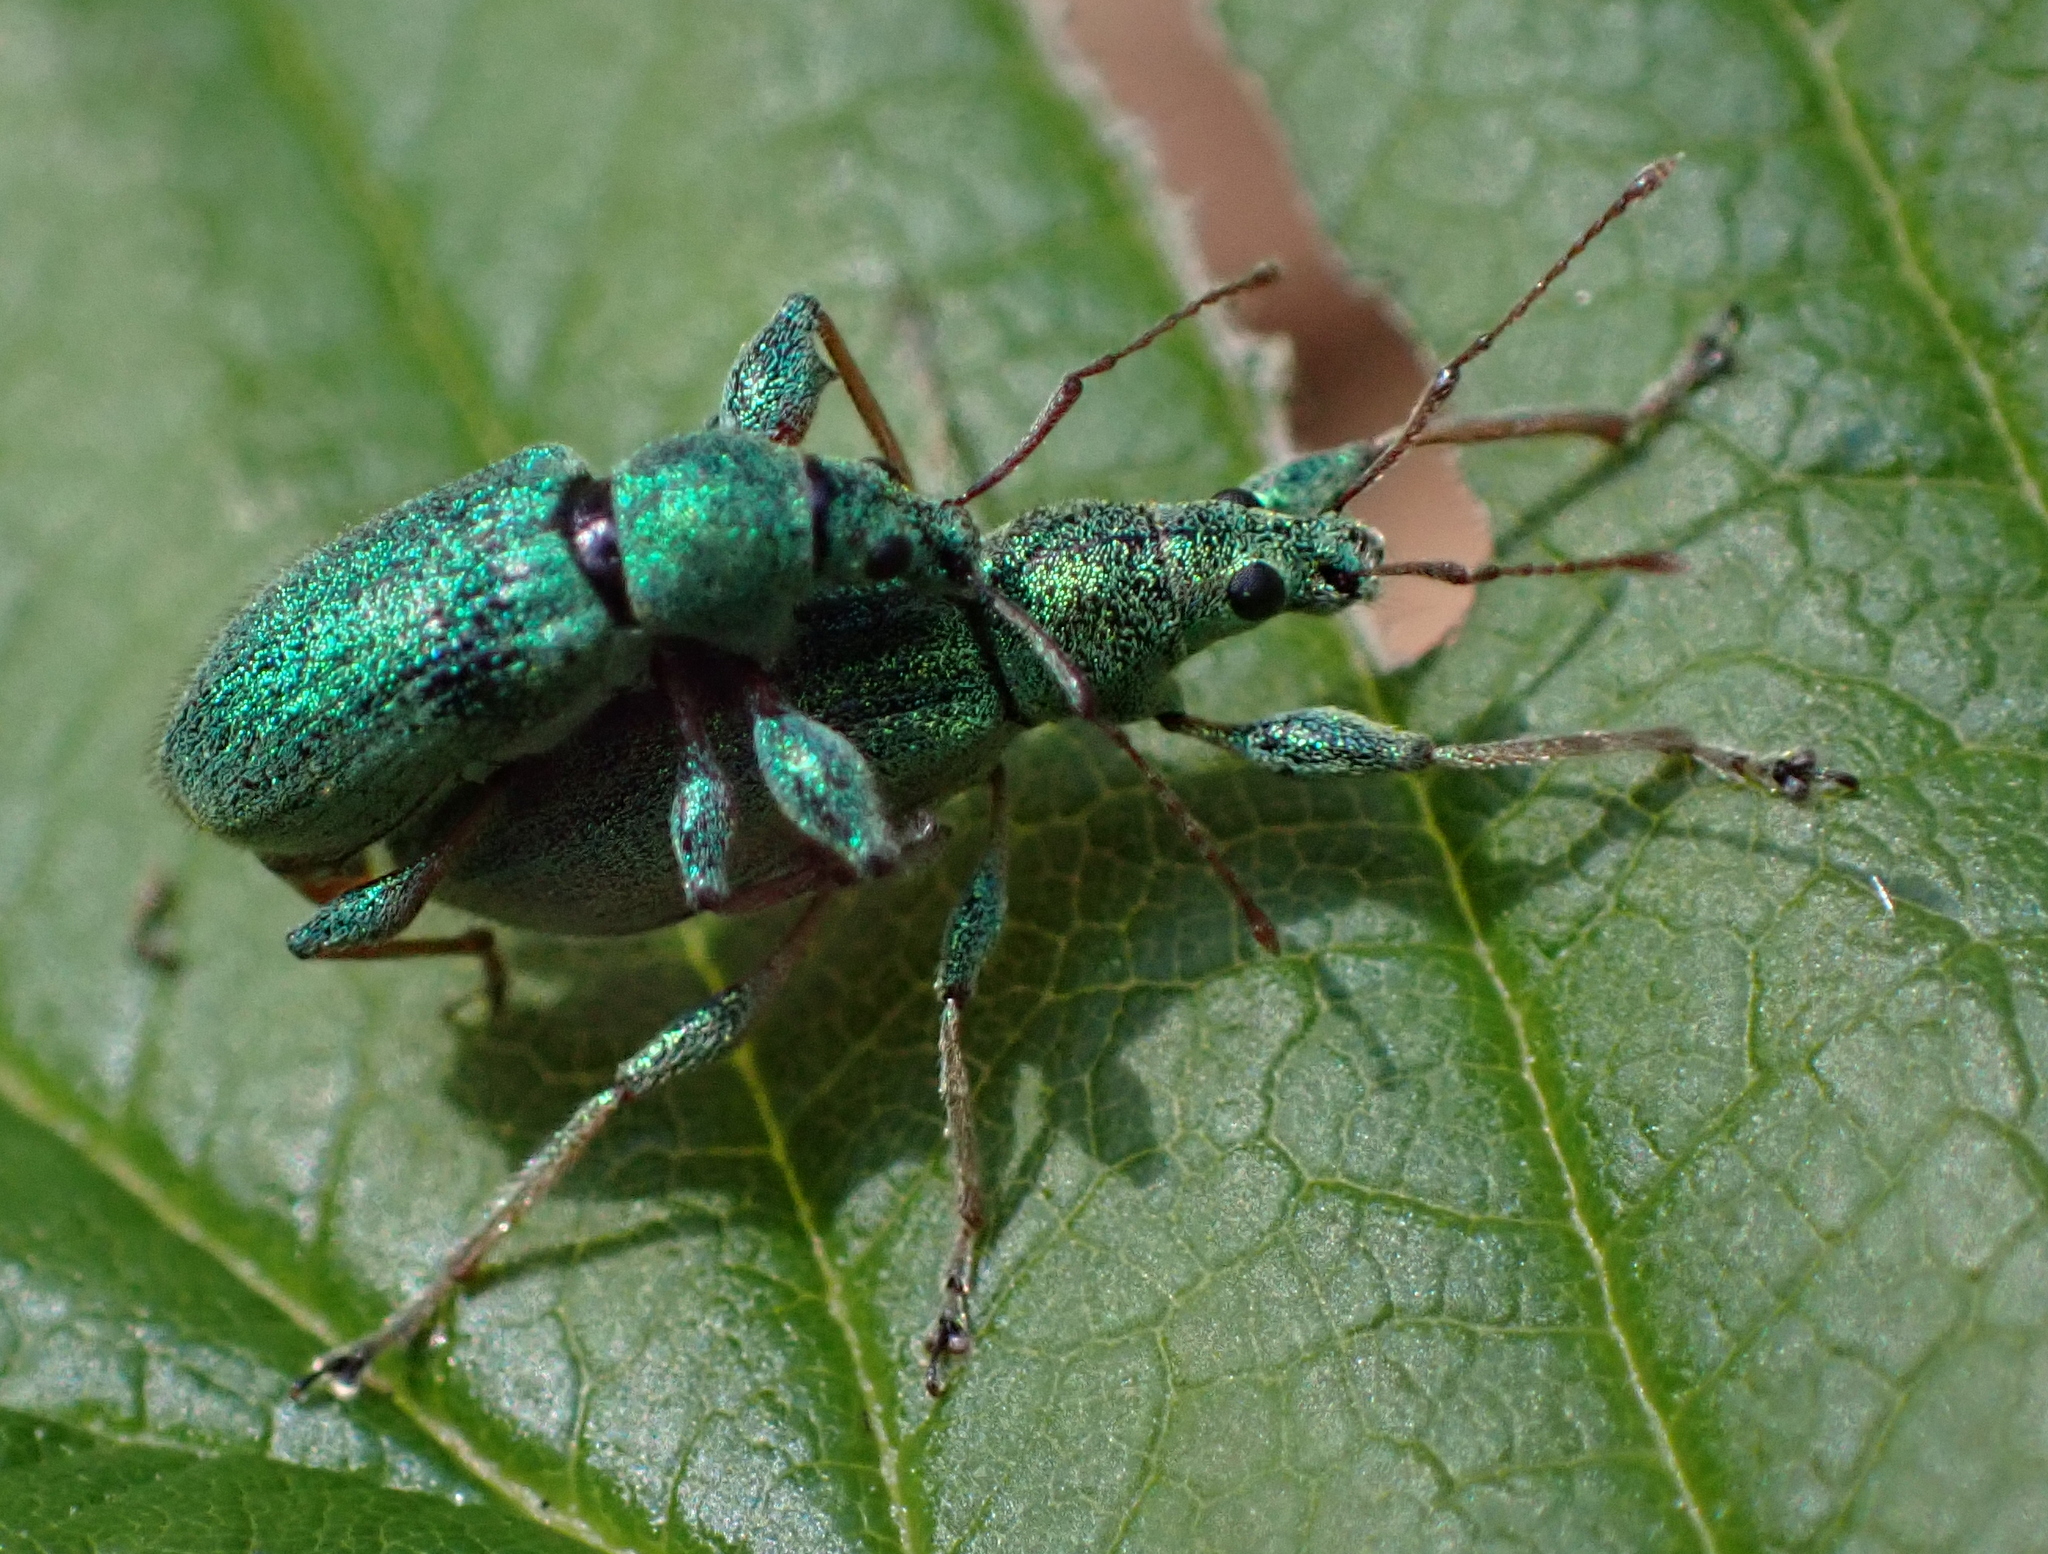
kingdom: Animalia
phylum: Arthropoda
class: Insecta
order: Coleoptera
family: Curculionidae
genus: Phyllobius
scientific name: Phyllobius arborator
